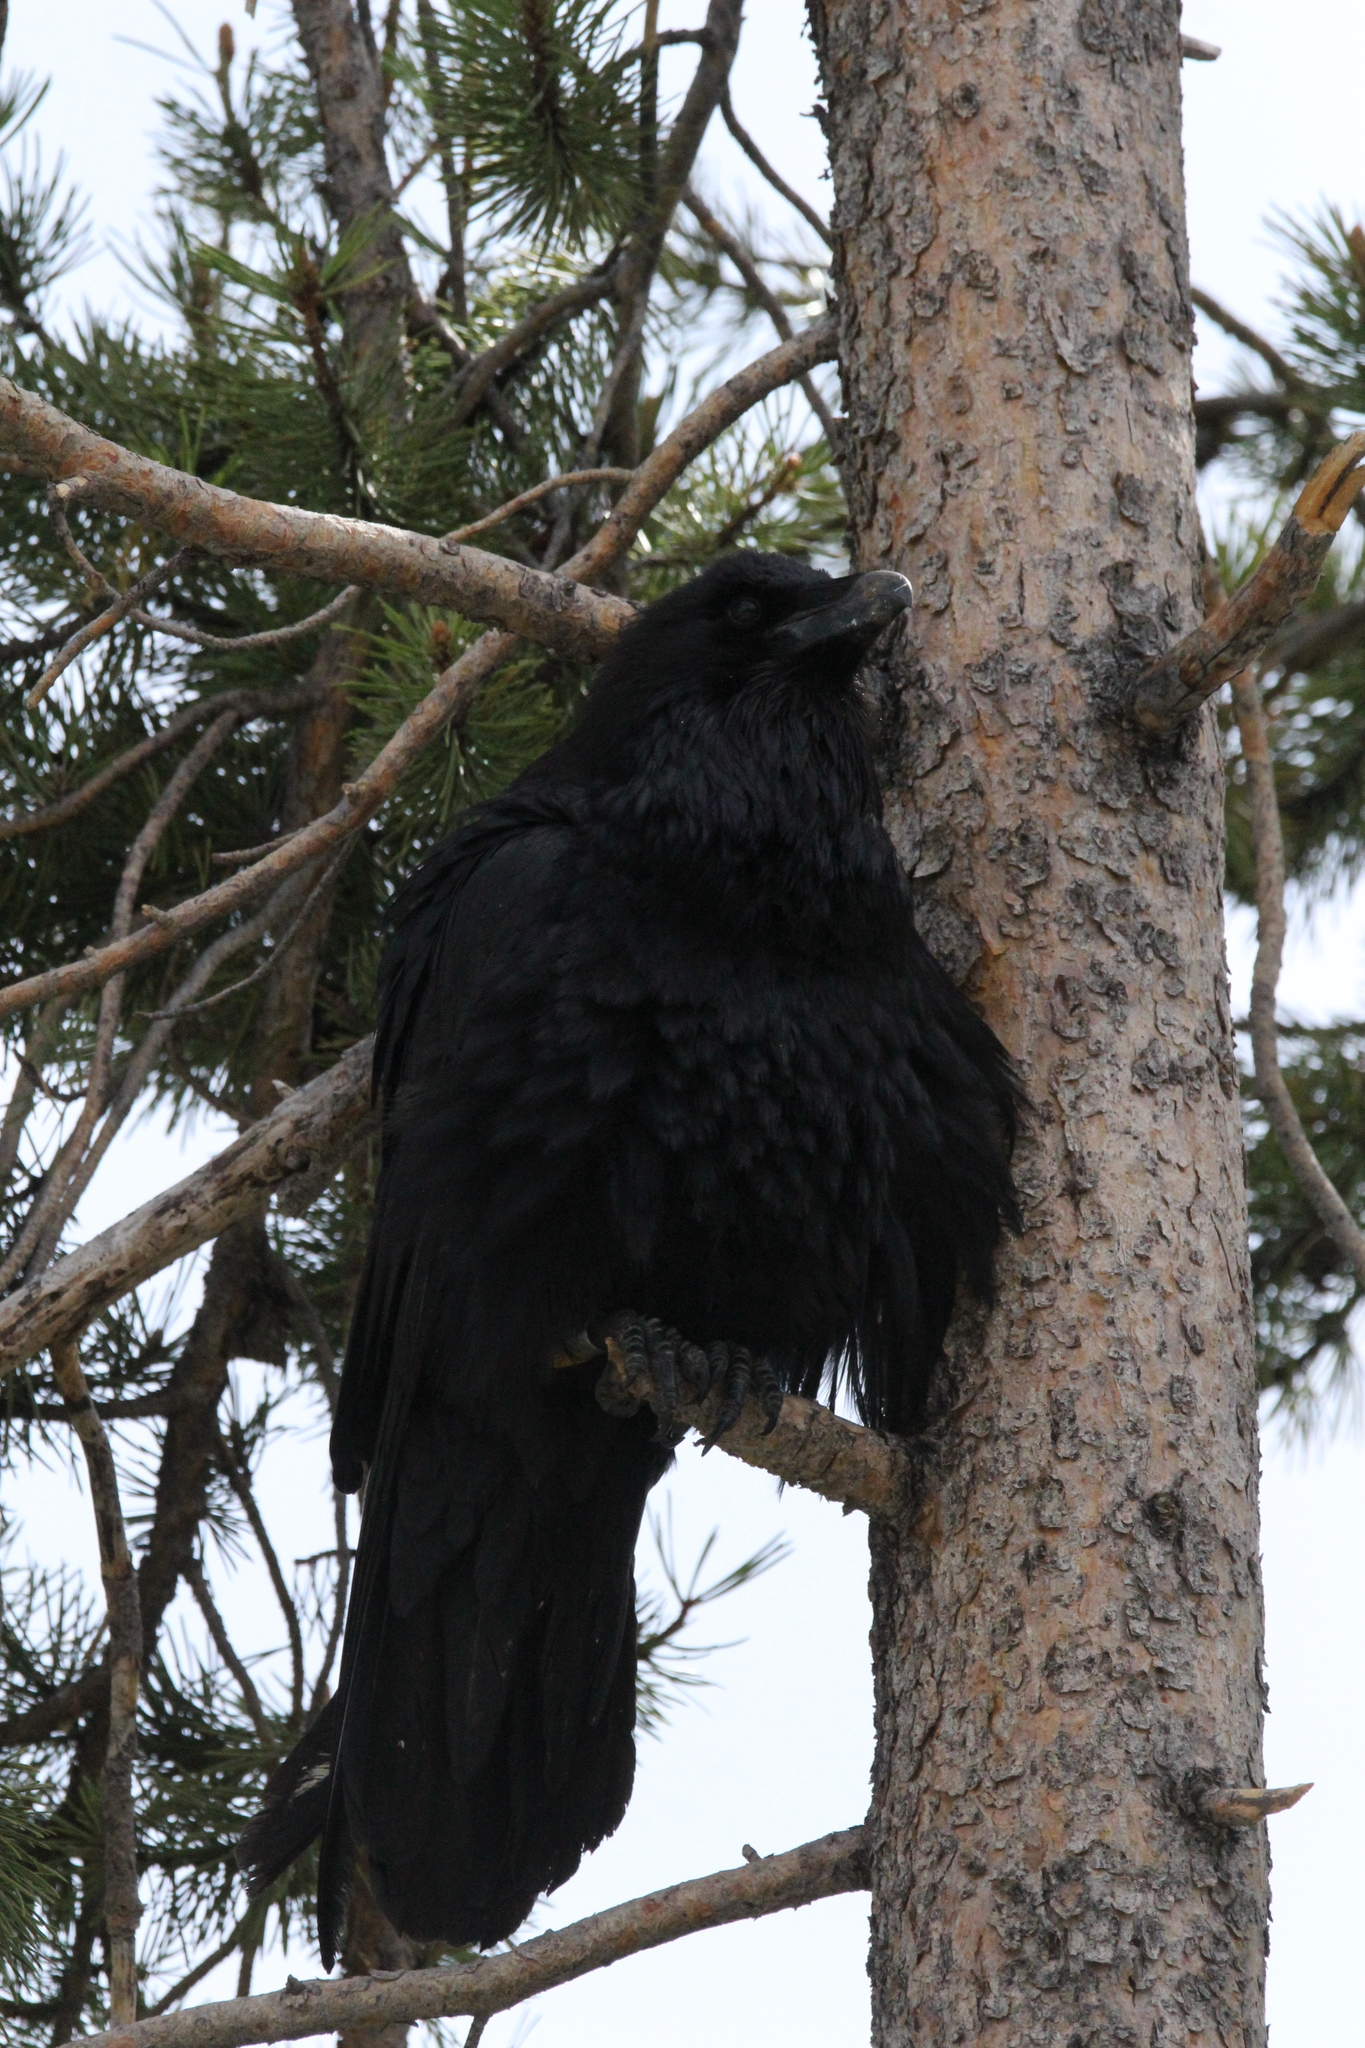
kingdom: Animalia
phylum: Chordata
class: Aves
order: Passeriformes
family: Corvidae
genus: Corvus
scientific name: Corvus corax
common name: Common raven
